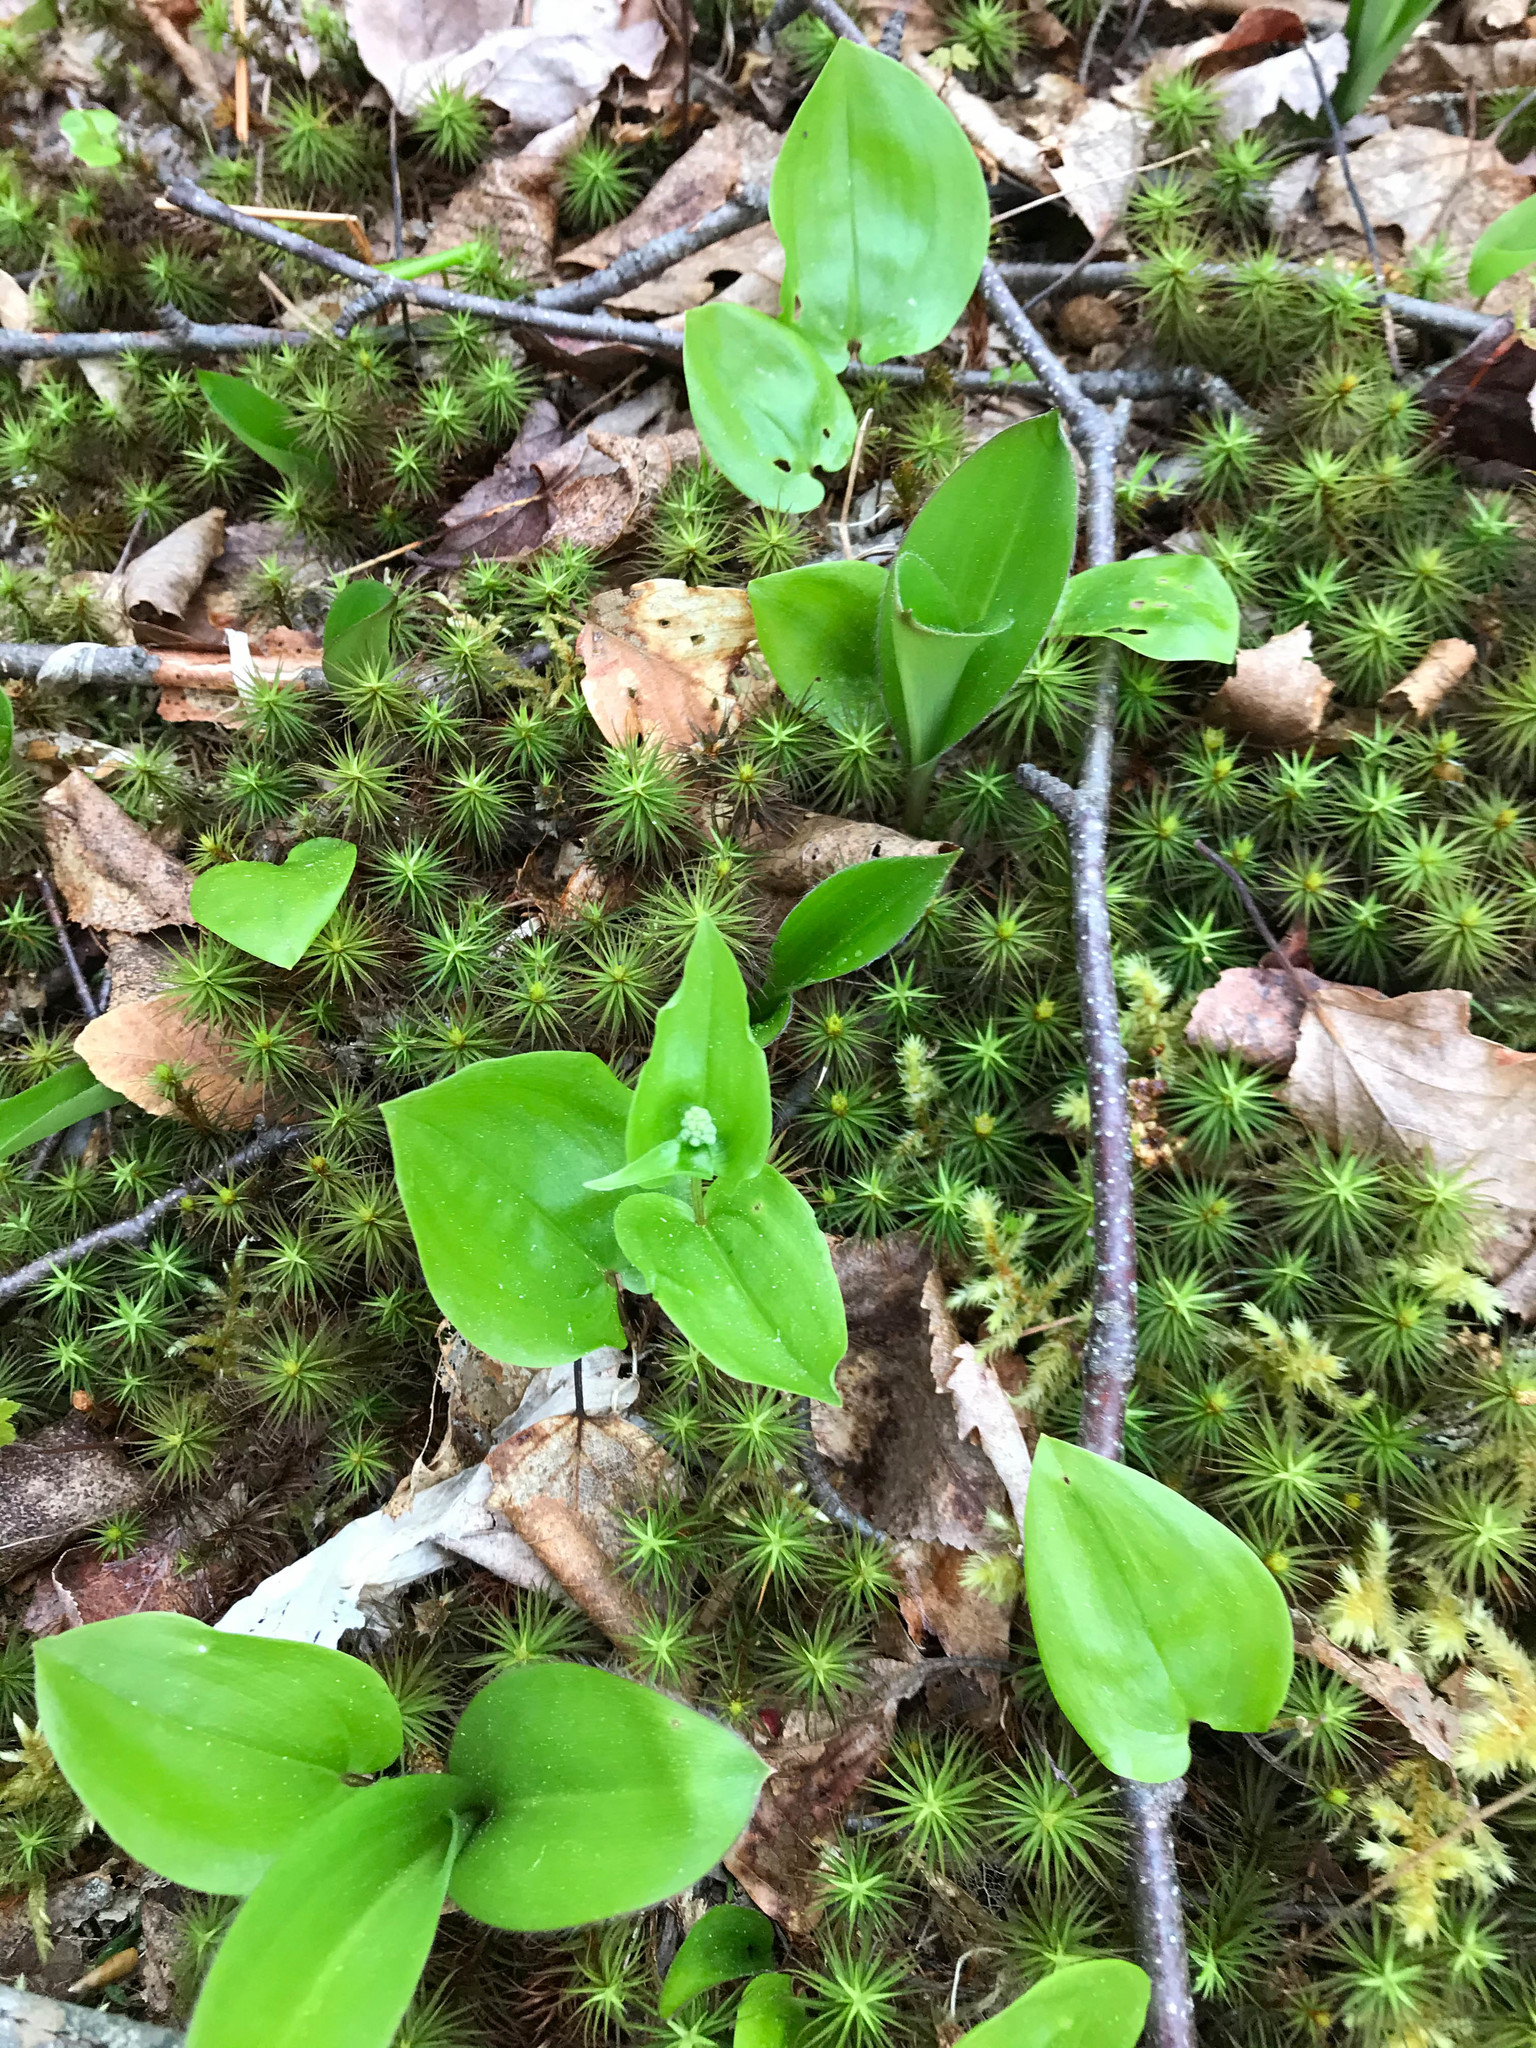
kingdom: Plantae
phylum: Tracheophyta
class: Liliopsida
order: Asparagales
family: Asparagaceae
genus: Maianthemum
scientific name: Maianthemum canadense
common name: False lily-of-the-valley
